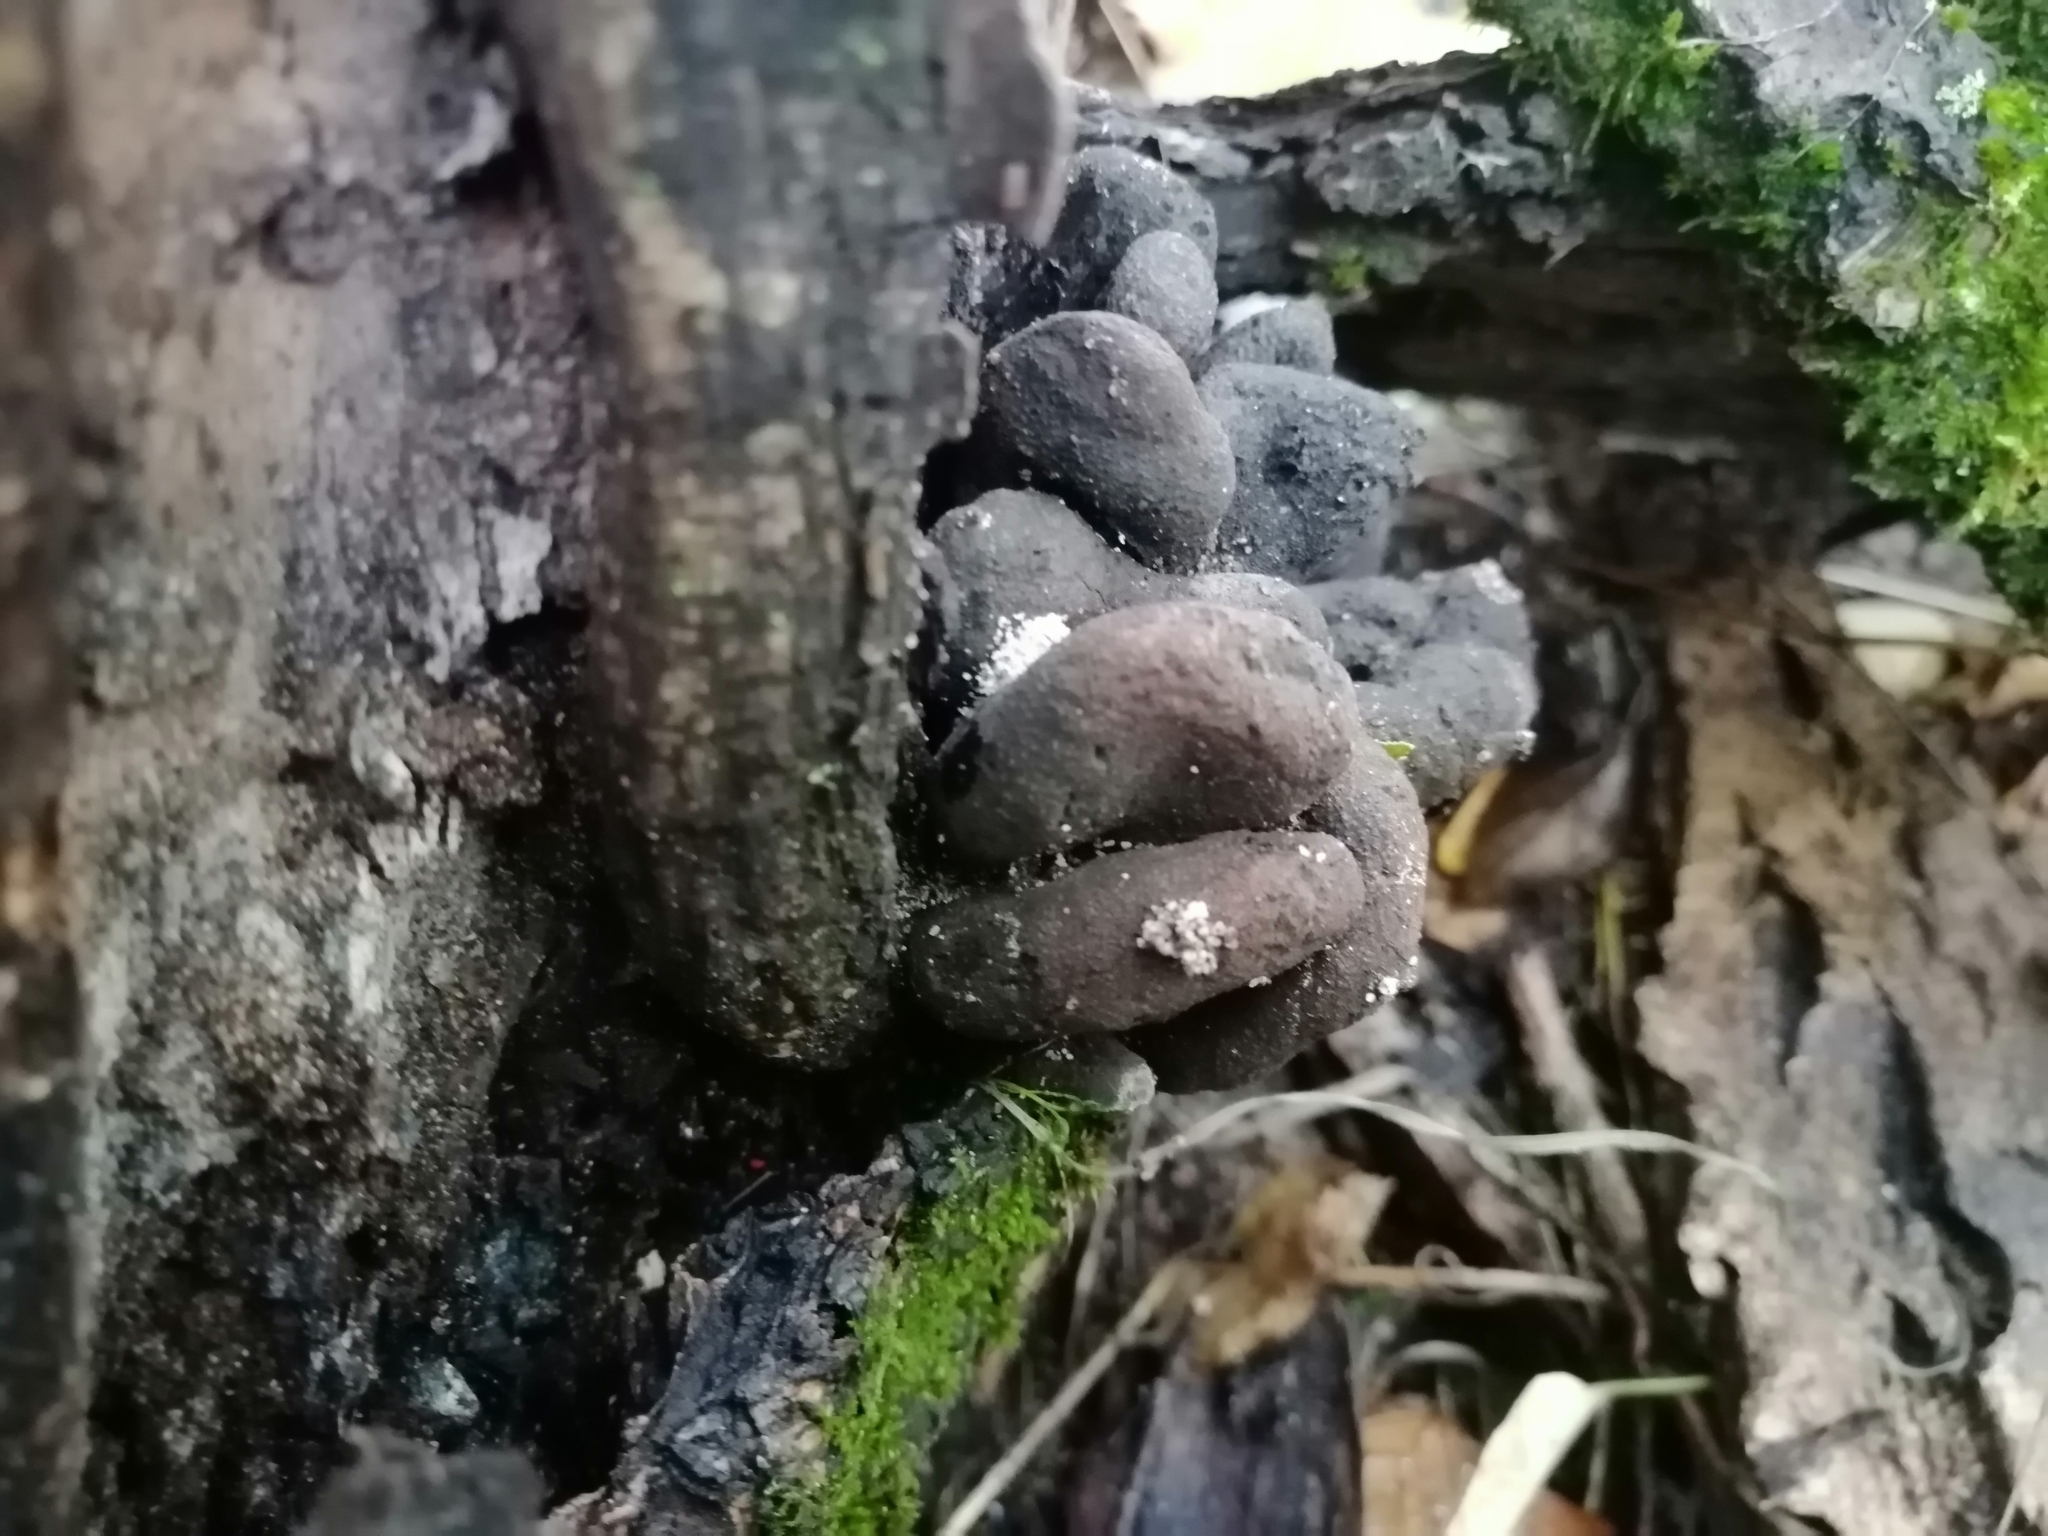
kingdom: Fungi
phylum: Ascomycota
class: Sordariomycetes
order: Xylariales
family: Xylariaceae
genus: Xylaria
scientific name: Xylaria polymorpha
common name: Dead man's fingers
